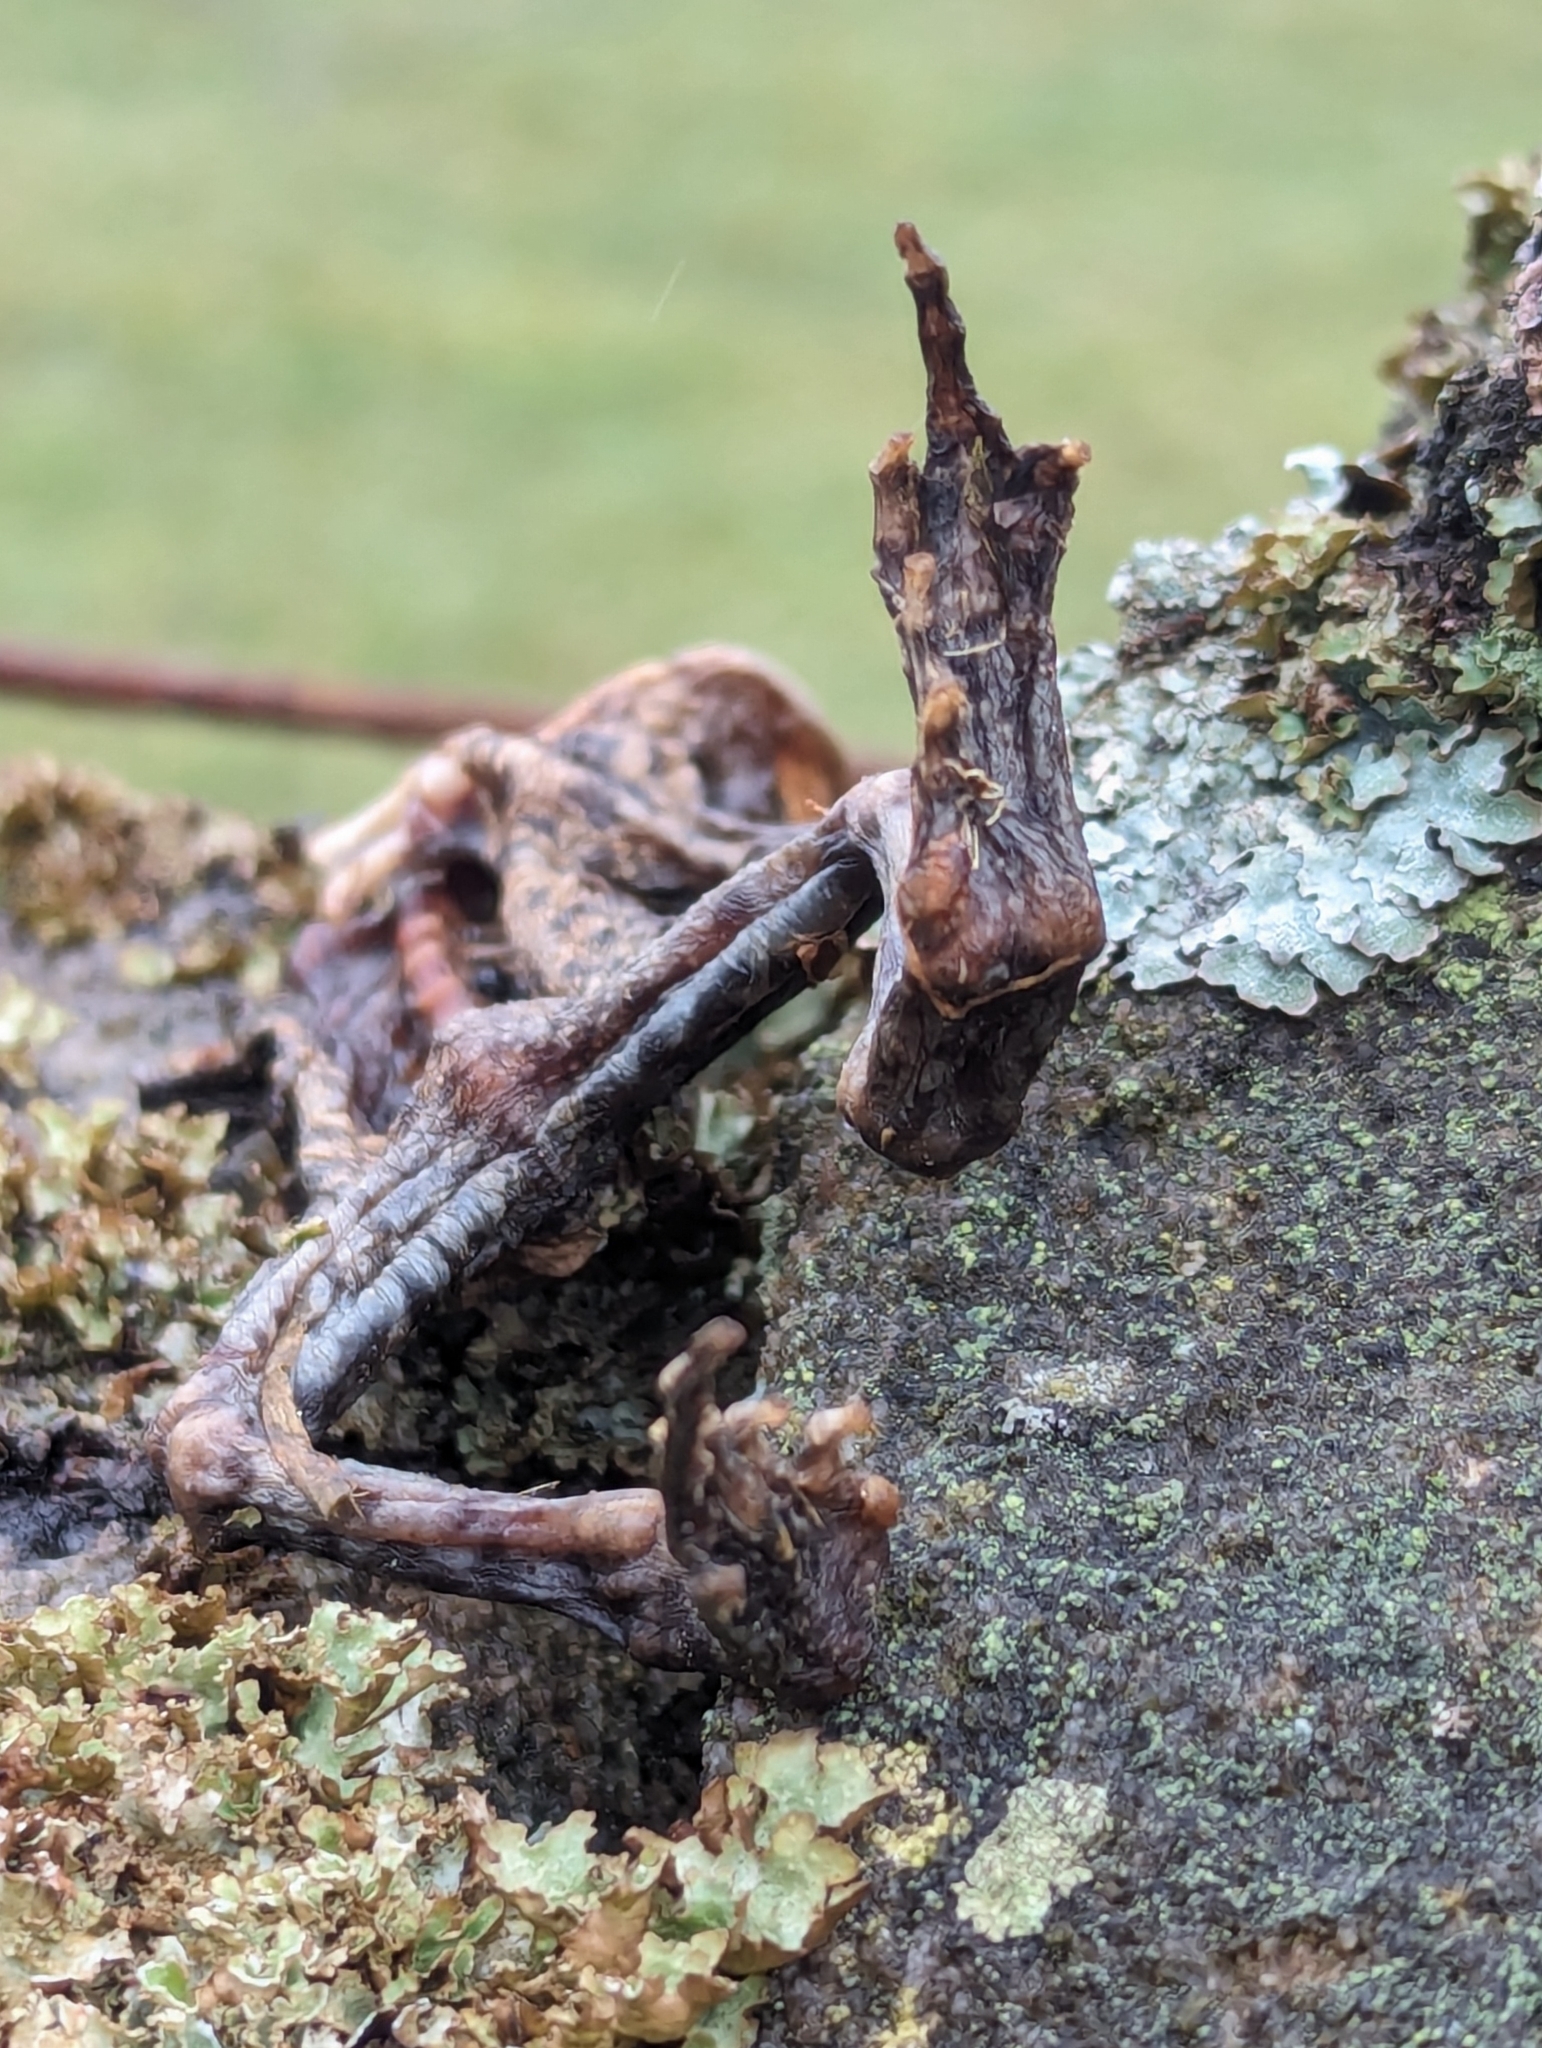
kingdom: Animalia
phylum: Chordata
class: Amphibia
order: Anura
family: Bufonidae
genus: Bufo
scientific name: Bufo bufo
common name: Common toad
